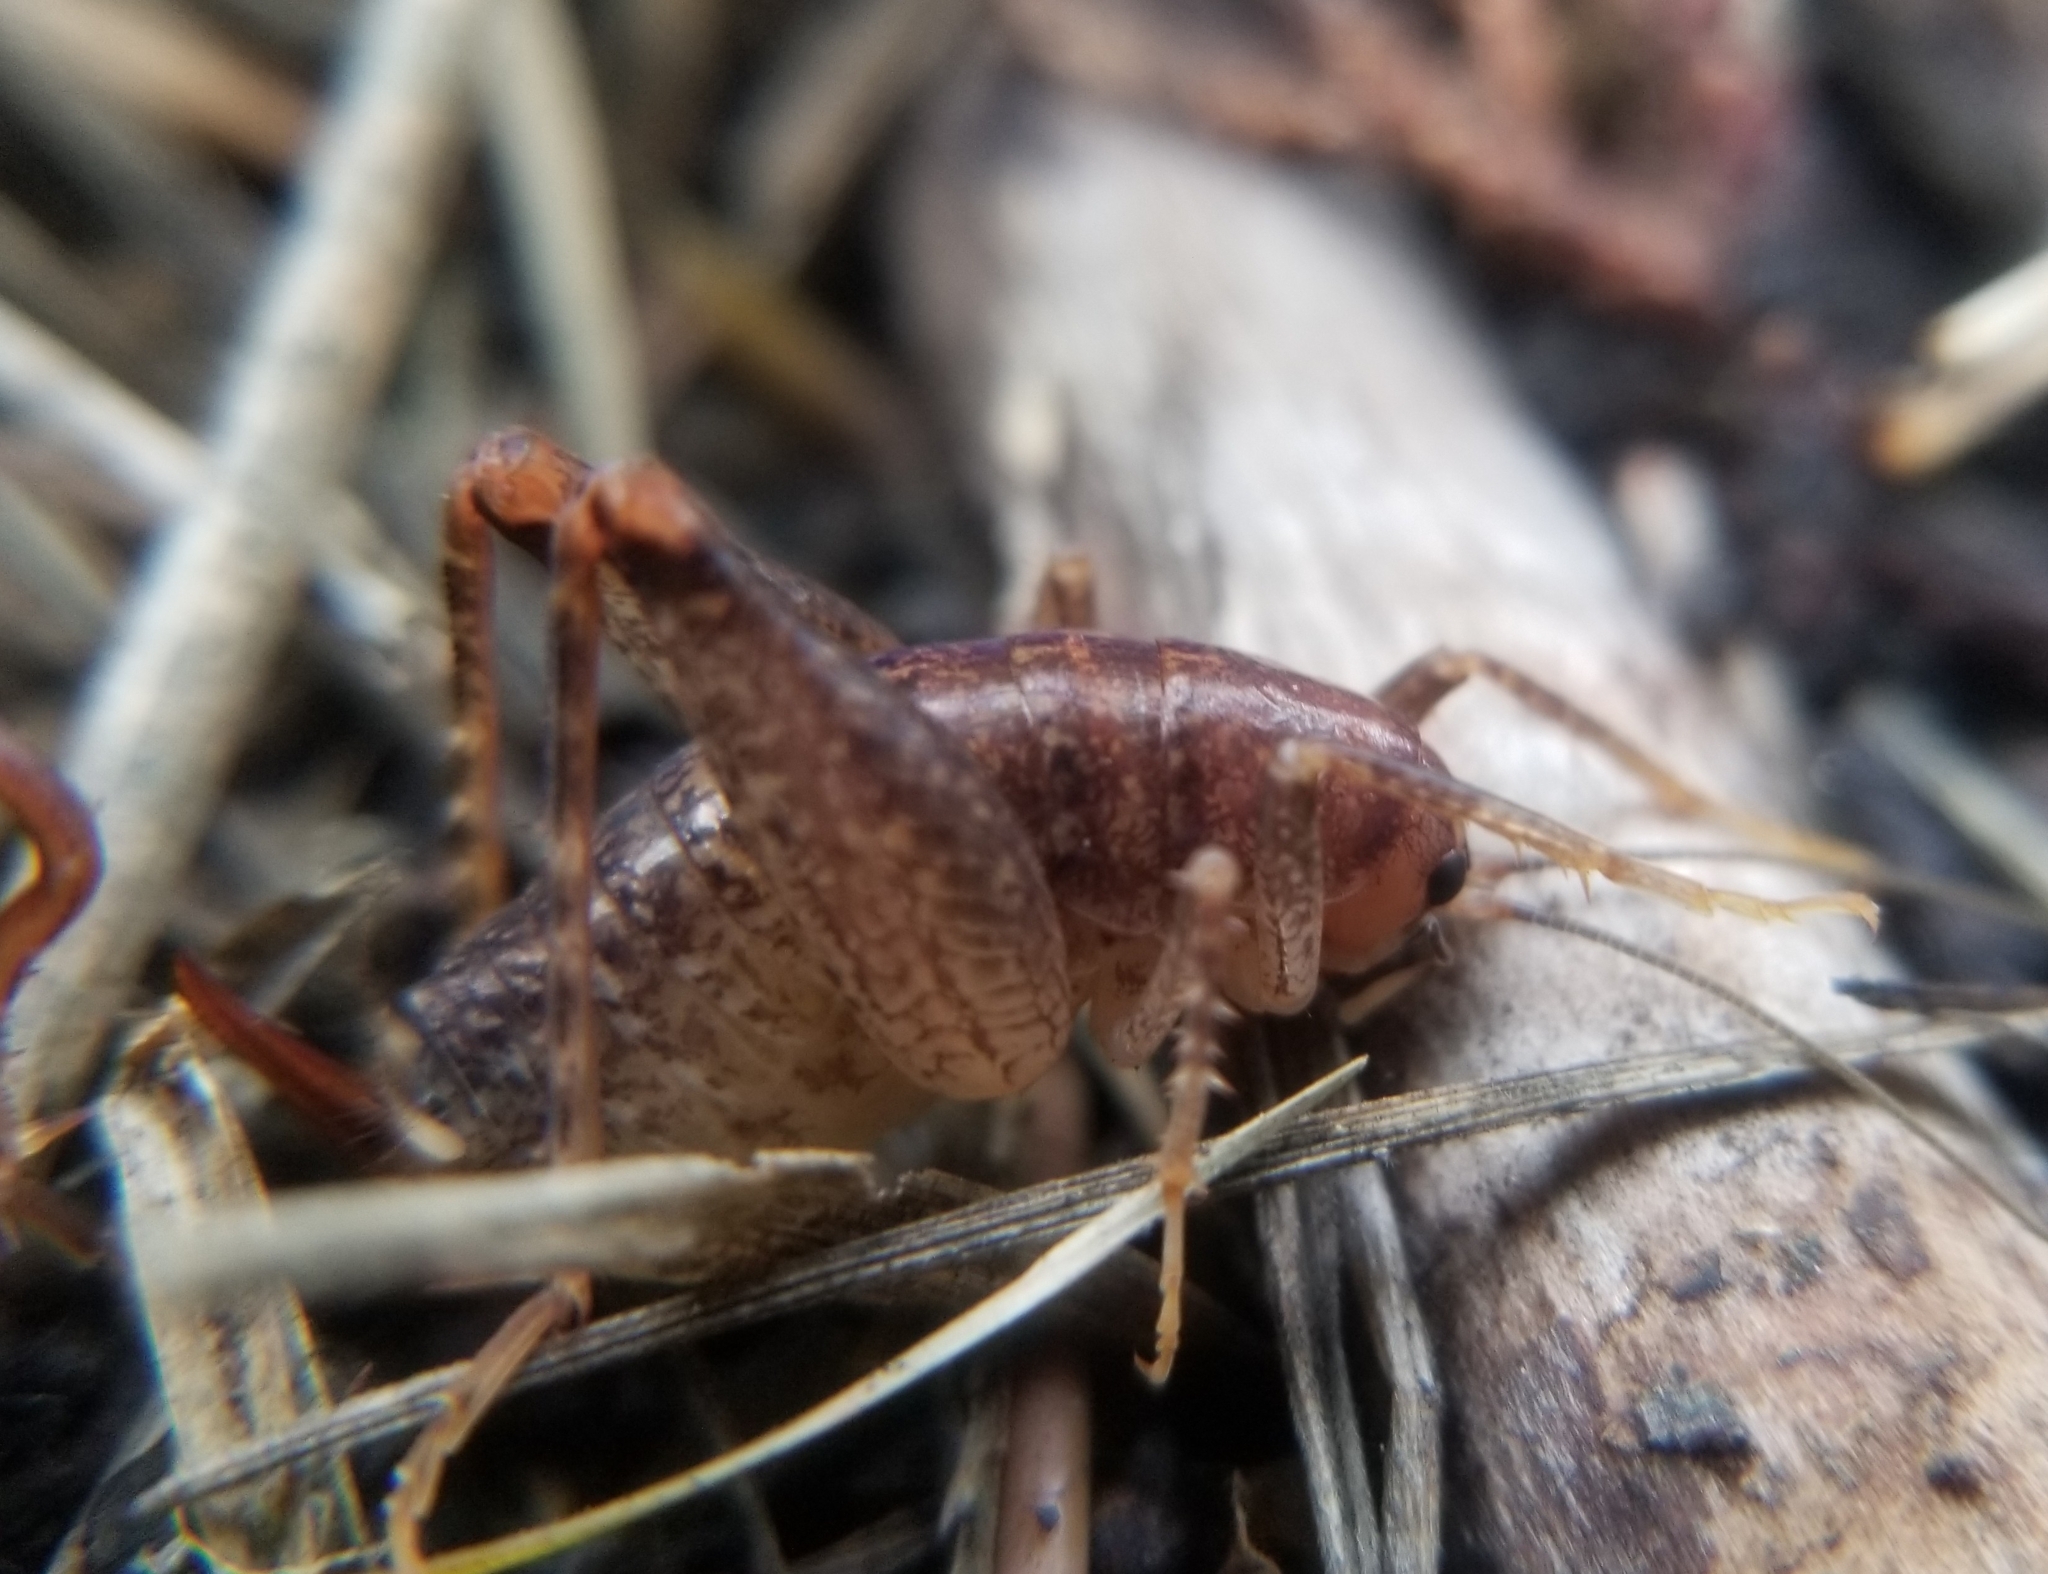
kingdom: Animalia
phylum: Arthropoda
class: Insecta
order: Orthoptera
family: Rhaphidophoridae
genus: Pristoceuthophilus
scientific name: Pristoceuthophilus
